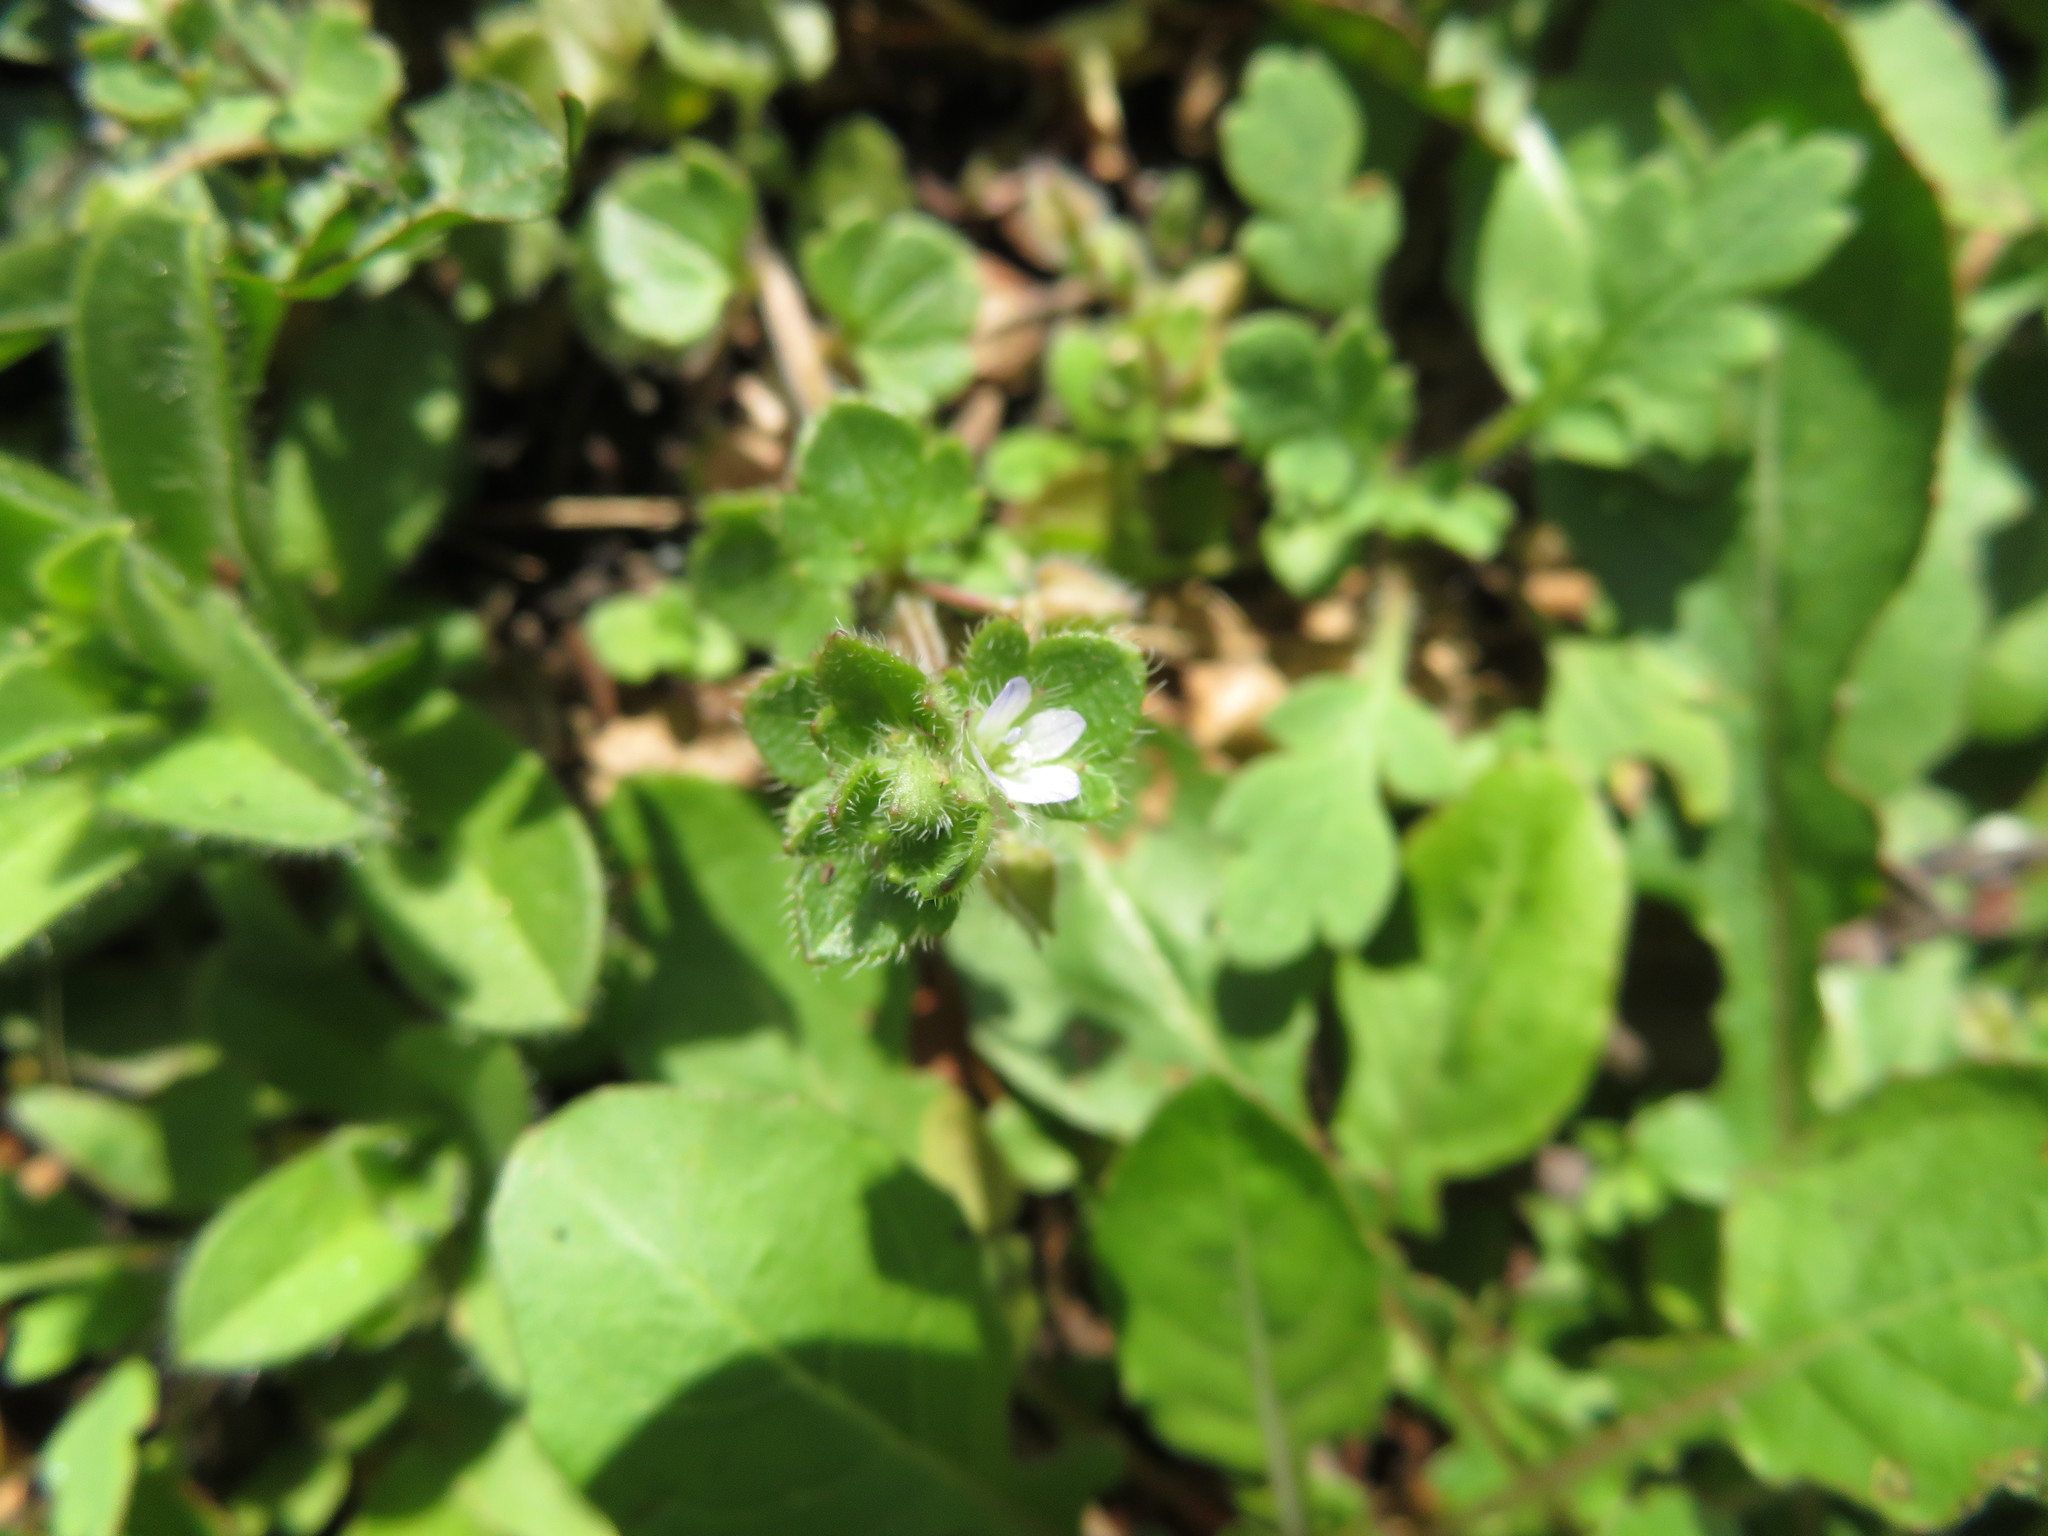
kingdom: Plantae
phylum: Tracheophyta
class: Magnoliopsida
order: Lamiales
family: Plantaginaceae
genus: Veronica
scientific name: Veronica hederifolia
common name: Ivy-leaved speedwell
